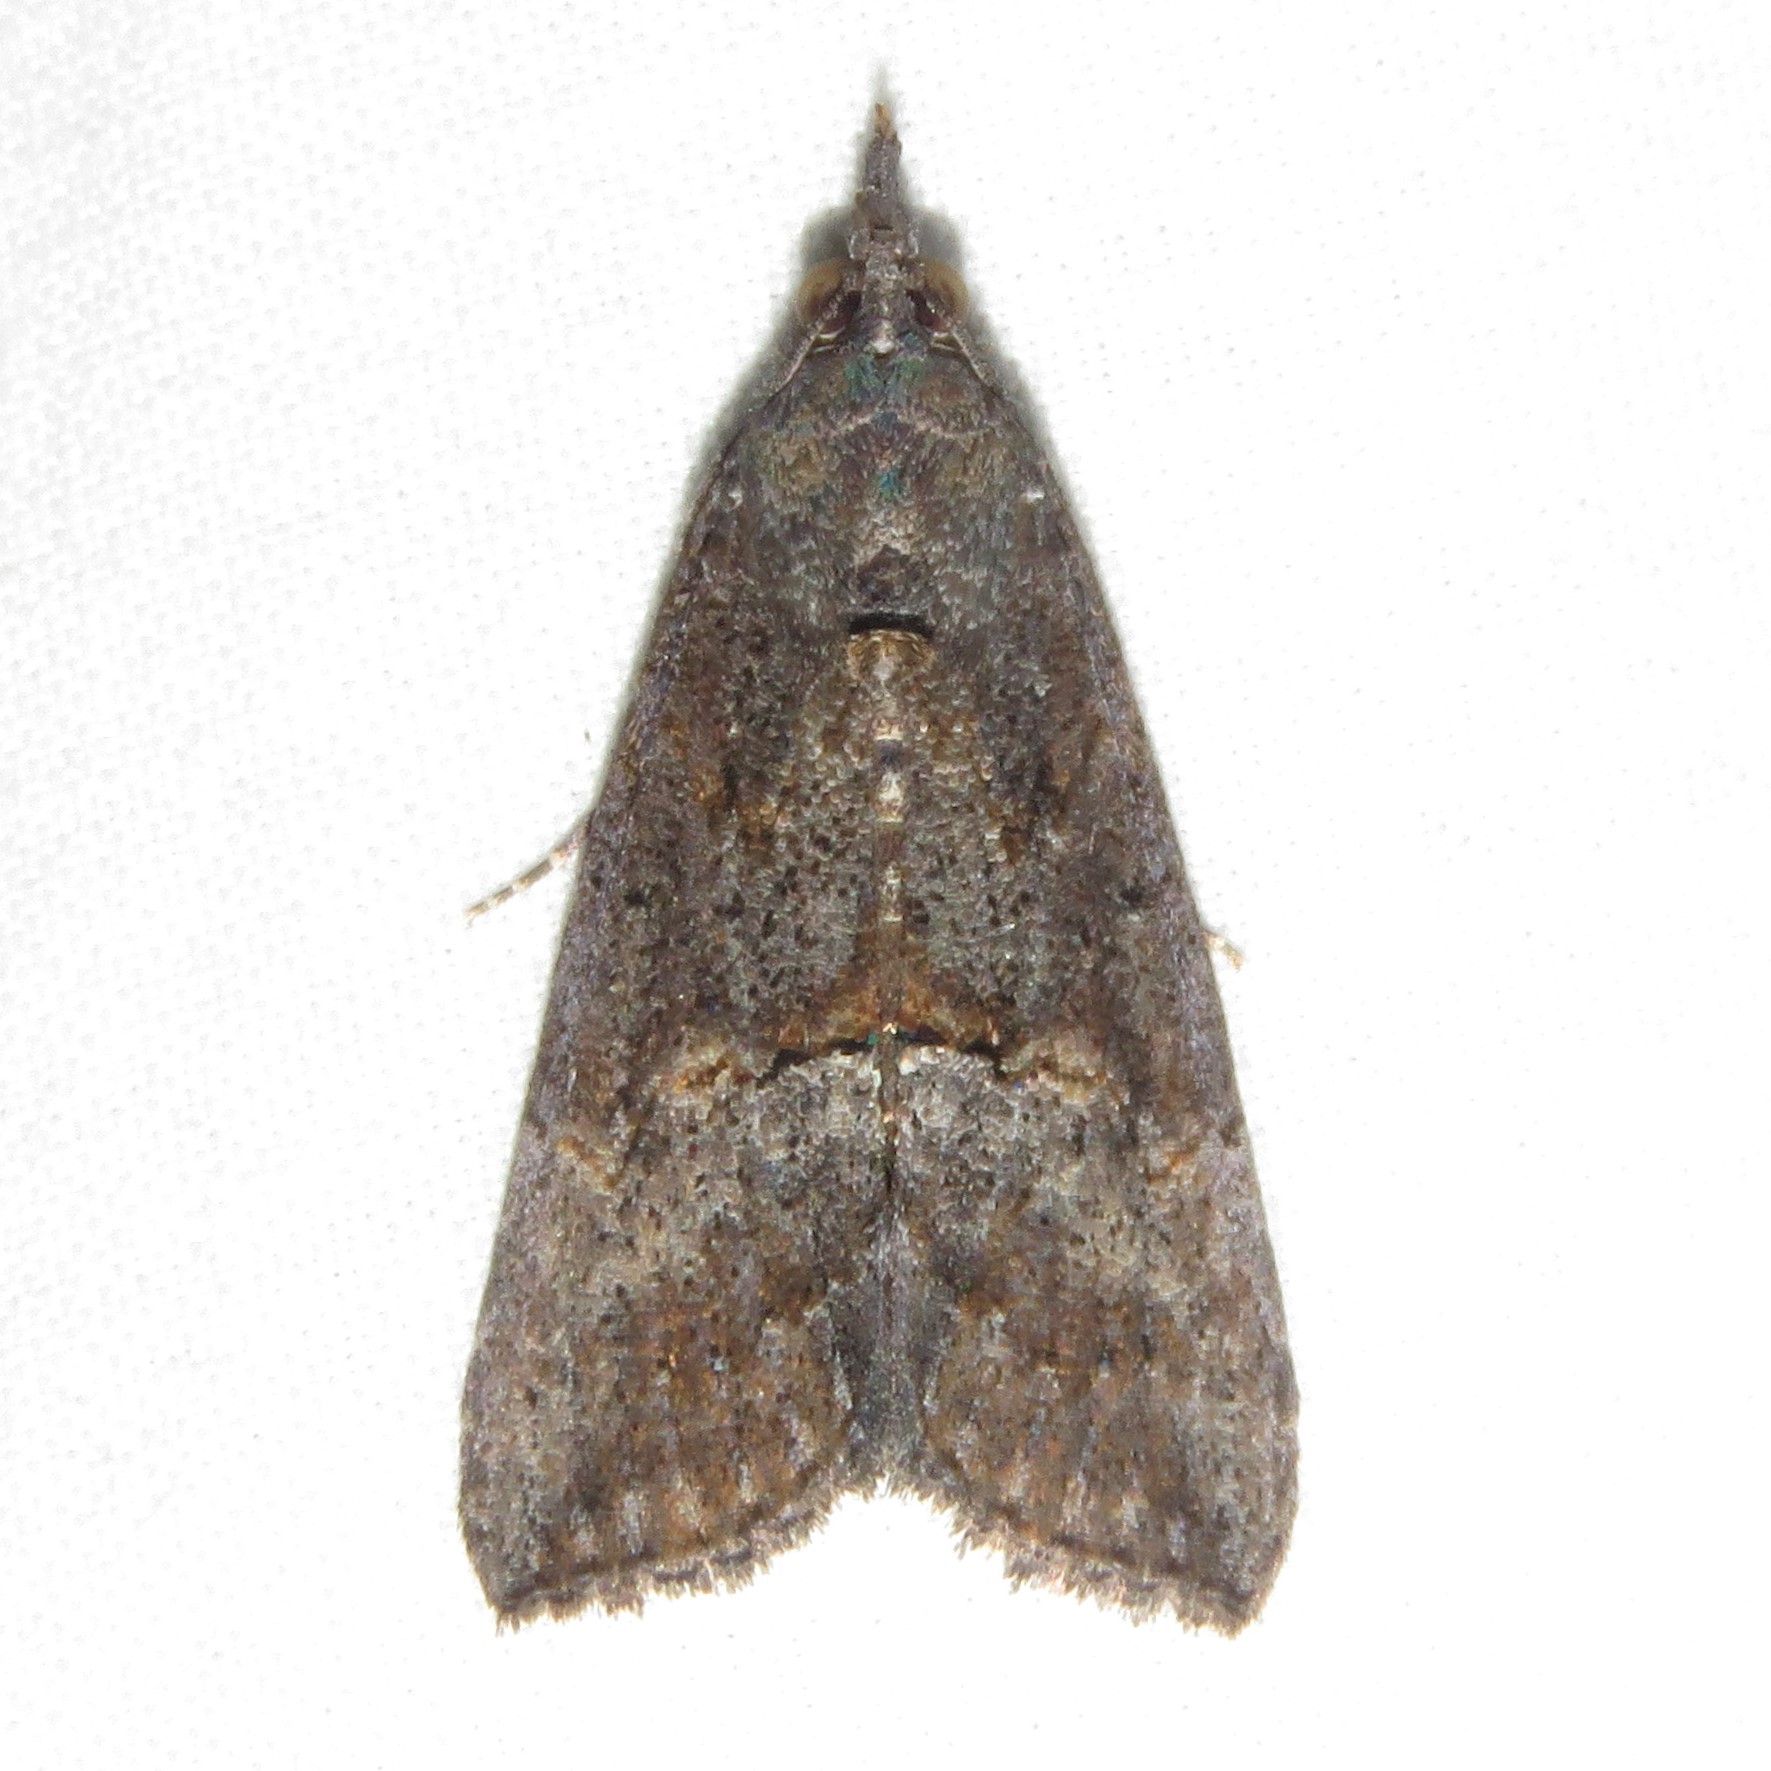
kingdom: Animalia
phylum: Arthropoda
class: Insecta
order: Lepidoptera
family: Erebidae
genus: Hypena
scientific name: Hypena scabra
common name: Green cloverworm
